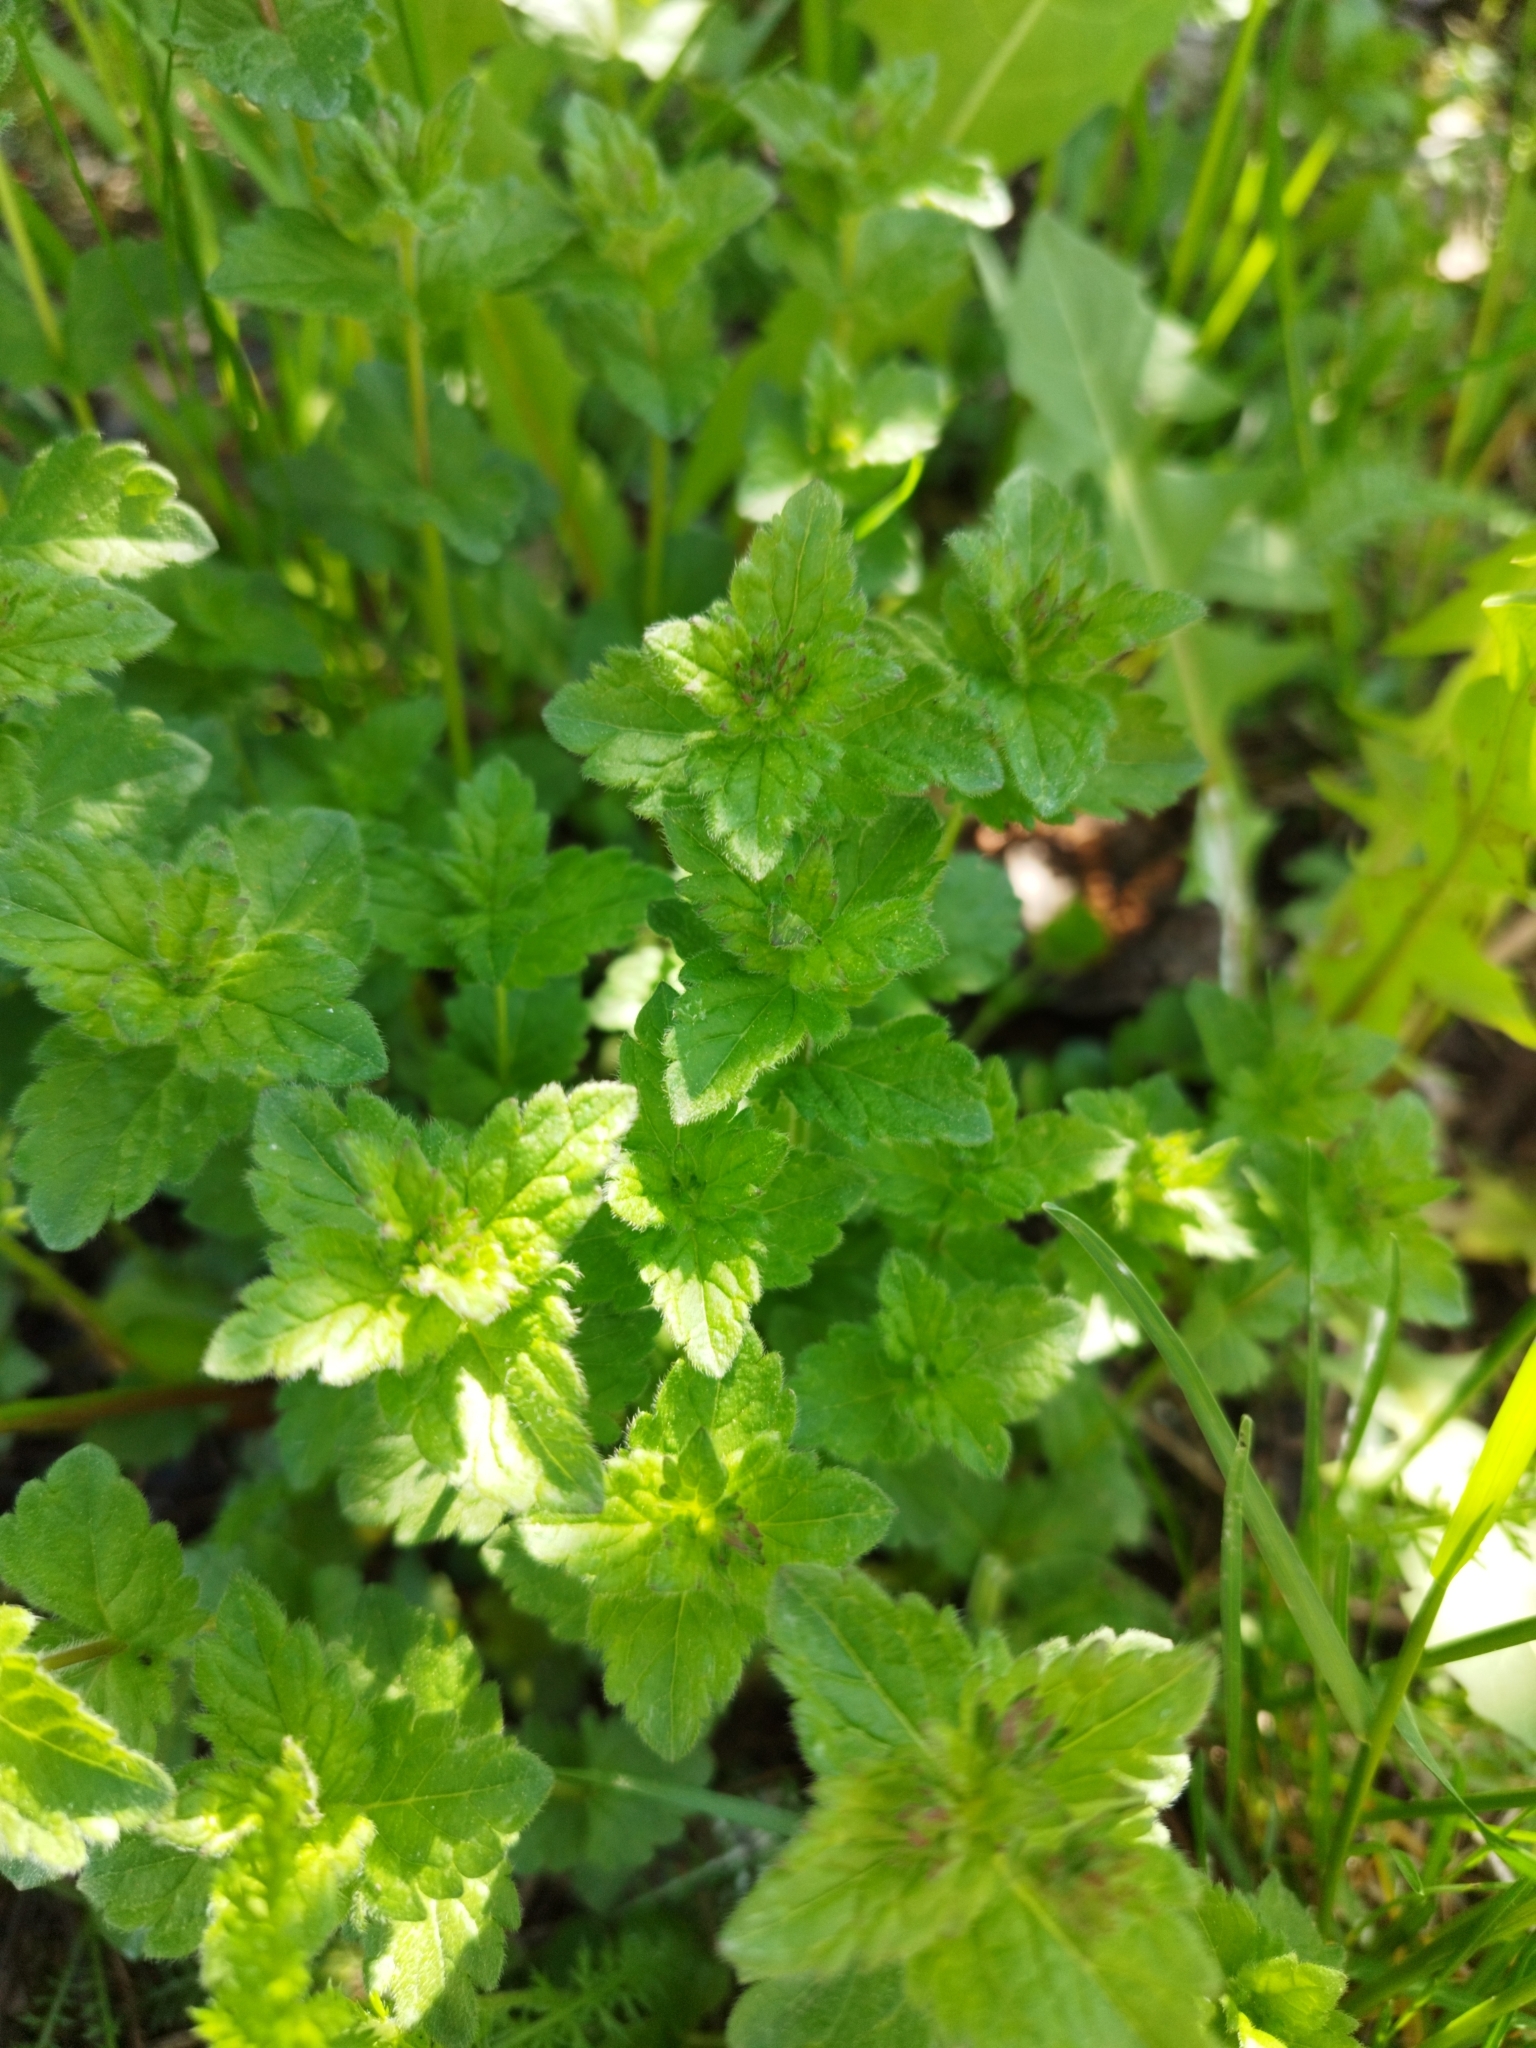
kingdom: Plantae
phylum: Tracheophyta
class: Magnoliopsida
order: Lamiales
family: Plantaginaceae
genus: Veronica
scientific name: Veronica chamaedrys
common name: Germander speedwell
